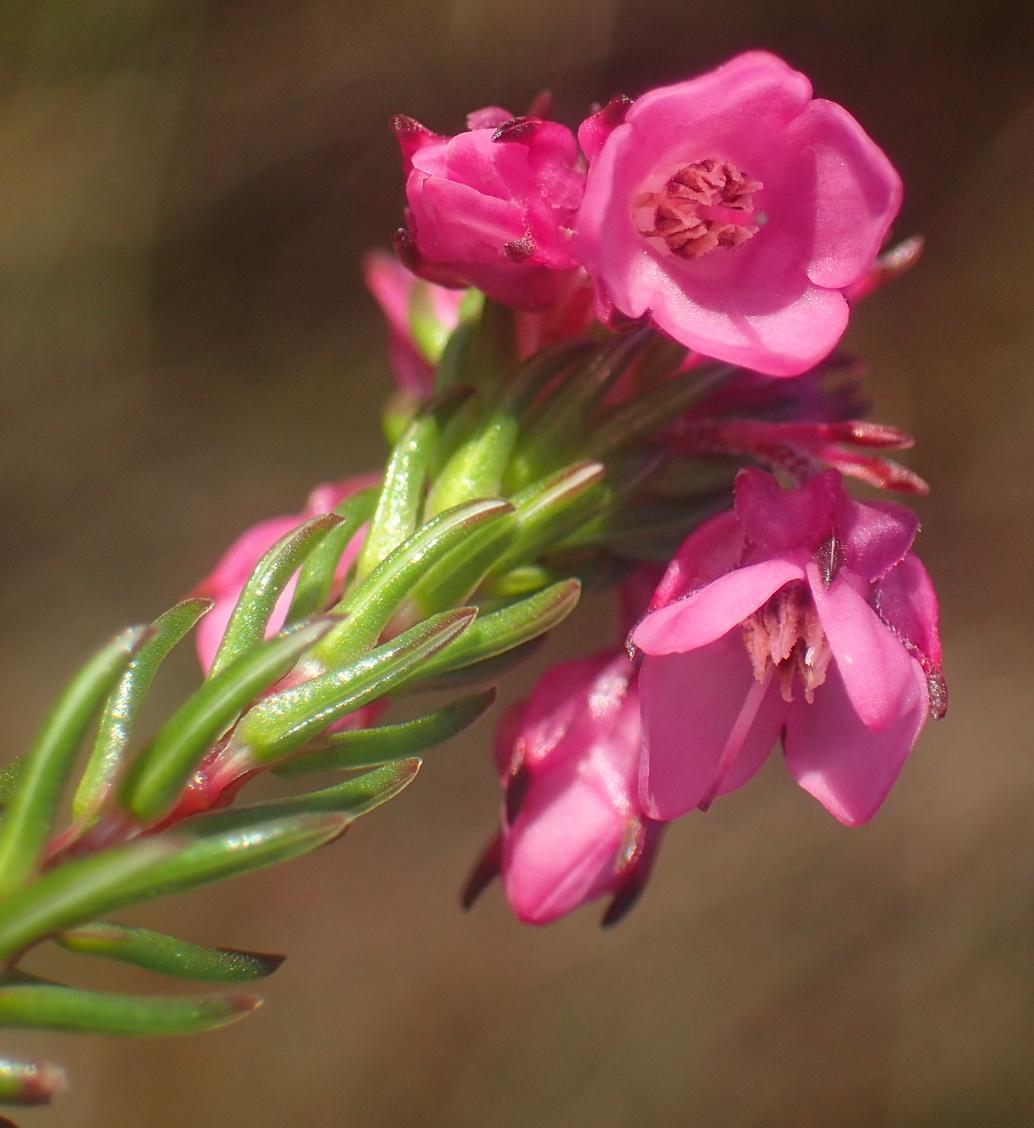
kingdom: Plantae
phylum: Tracheophyta
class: Magnoliopsida
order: Ericales
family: Ericaceae
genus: Erica
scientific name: Erica cubica
